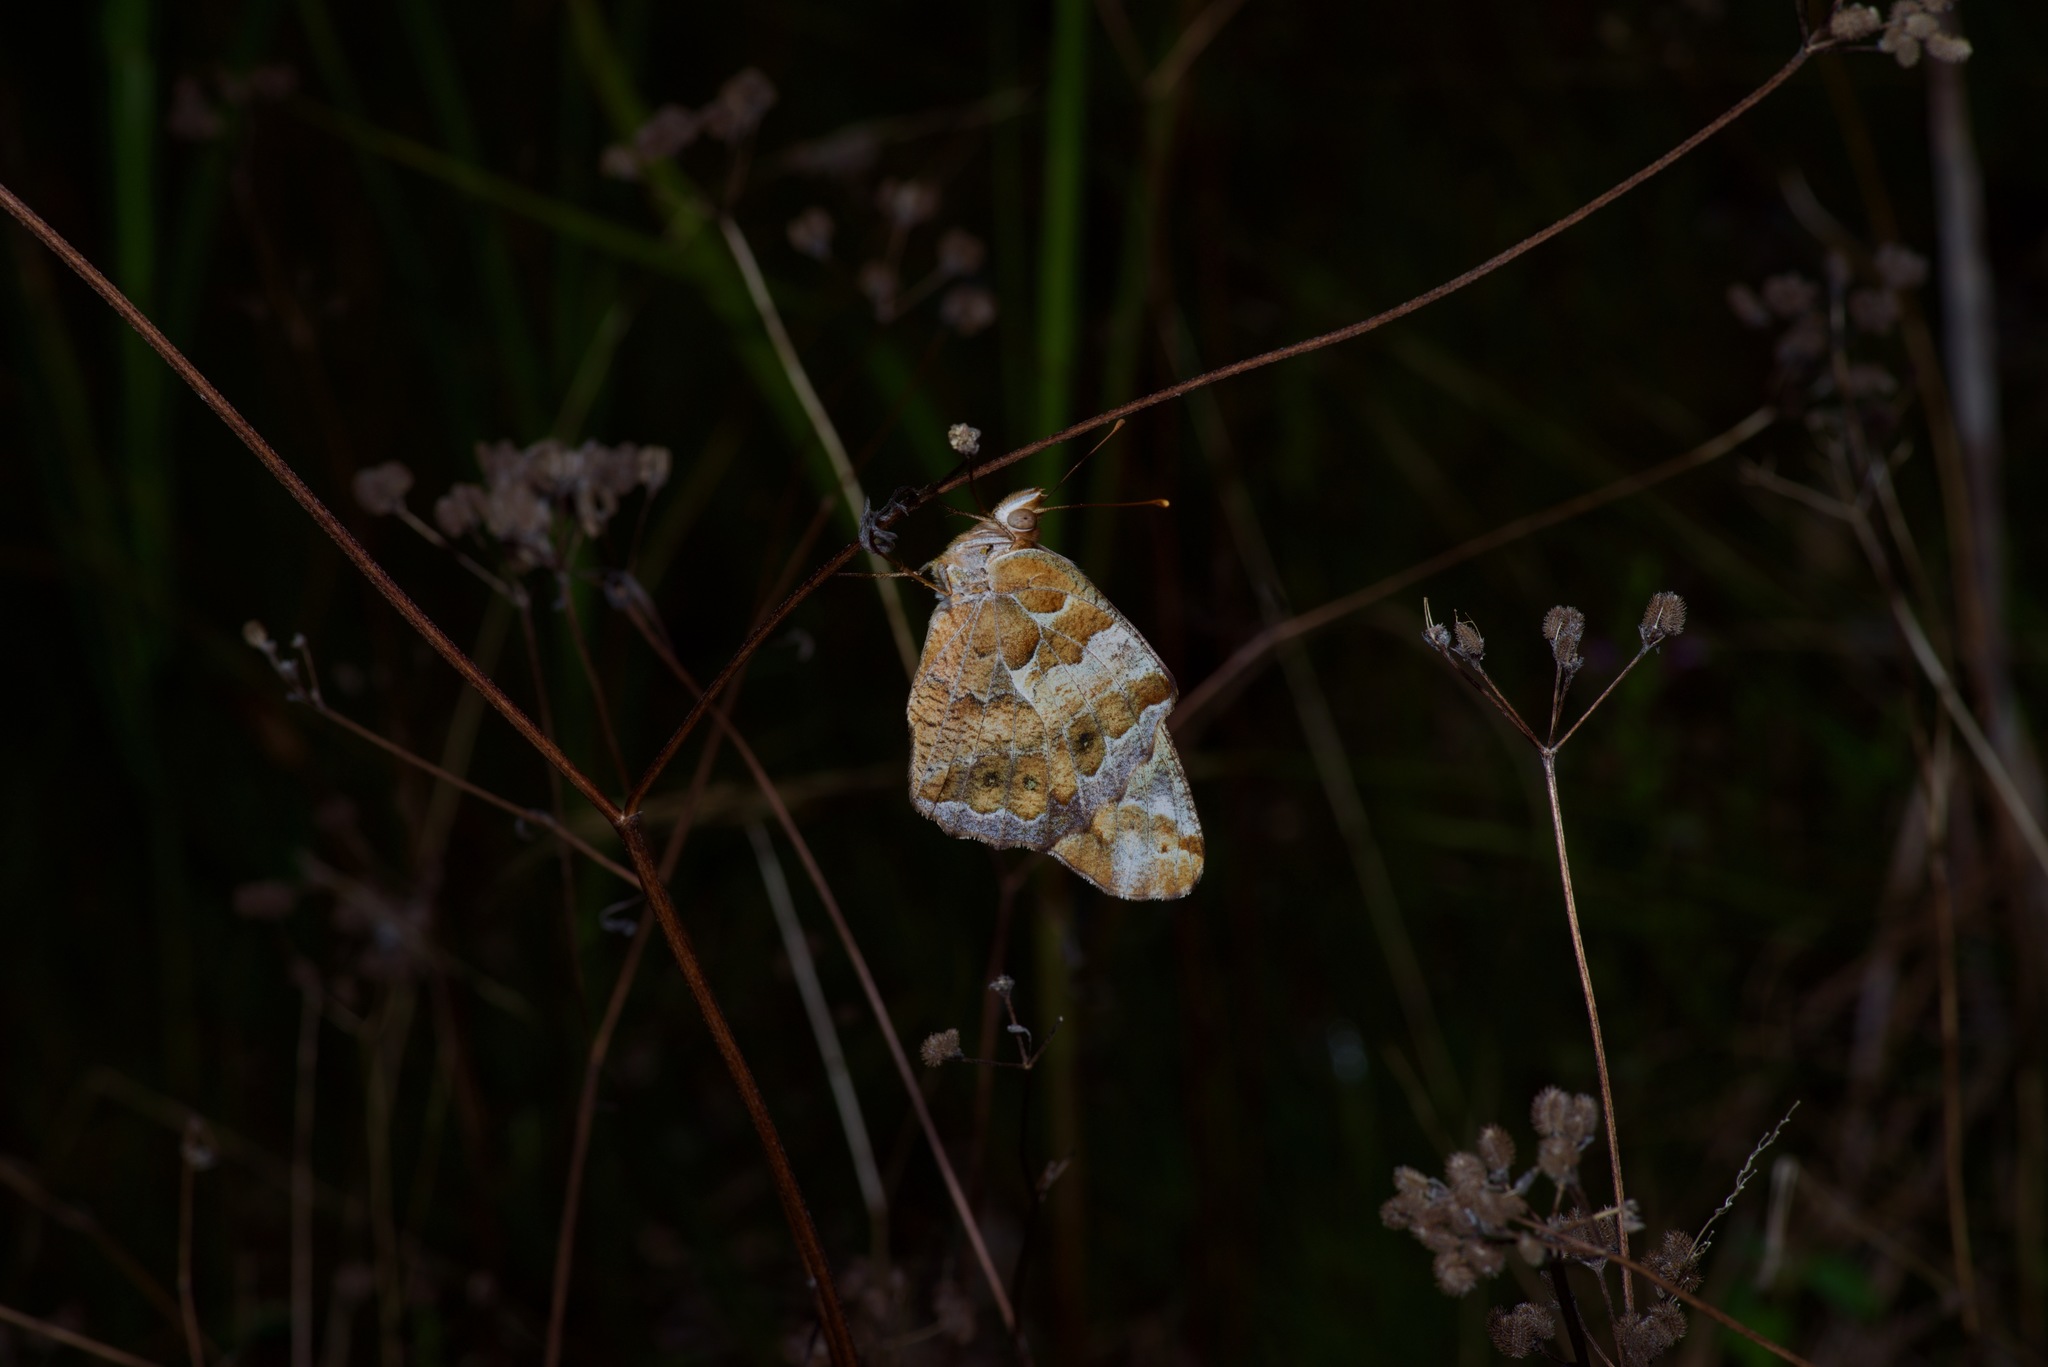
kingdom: Animalia
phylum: Arthropoda
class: Insecta
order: Lepidoptera
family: Nymphalidae
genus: Euptoieta
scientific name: Euptoieta claudia
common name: Variegated fritillary
